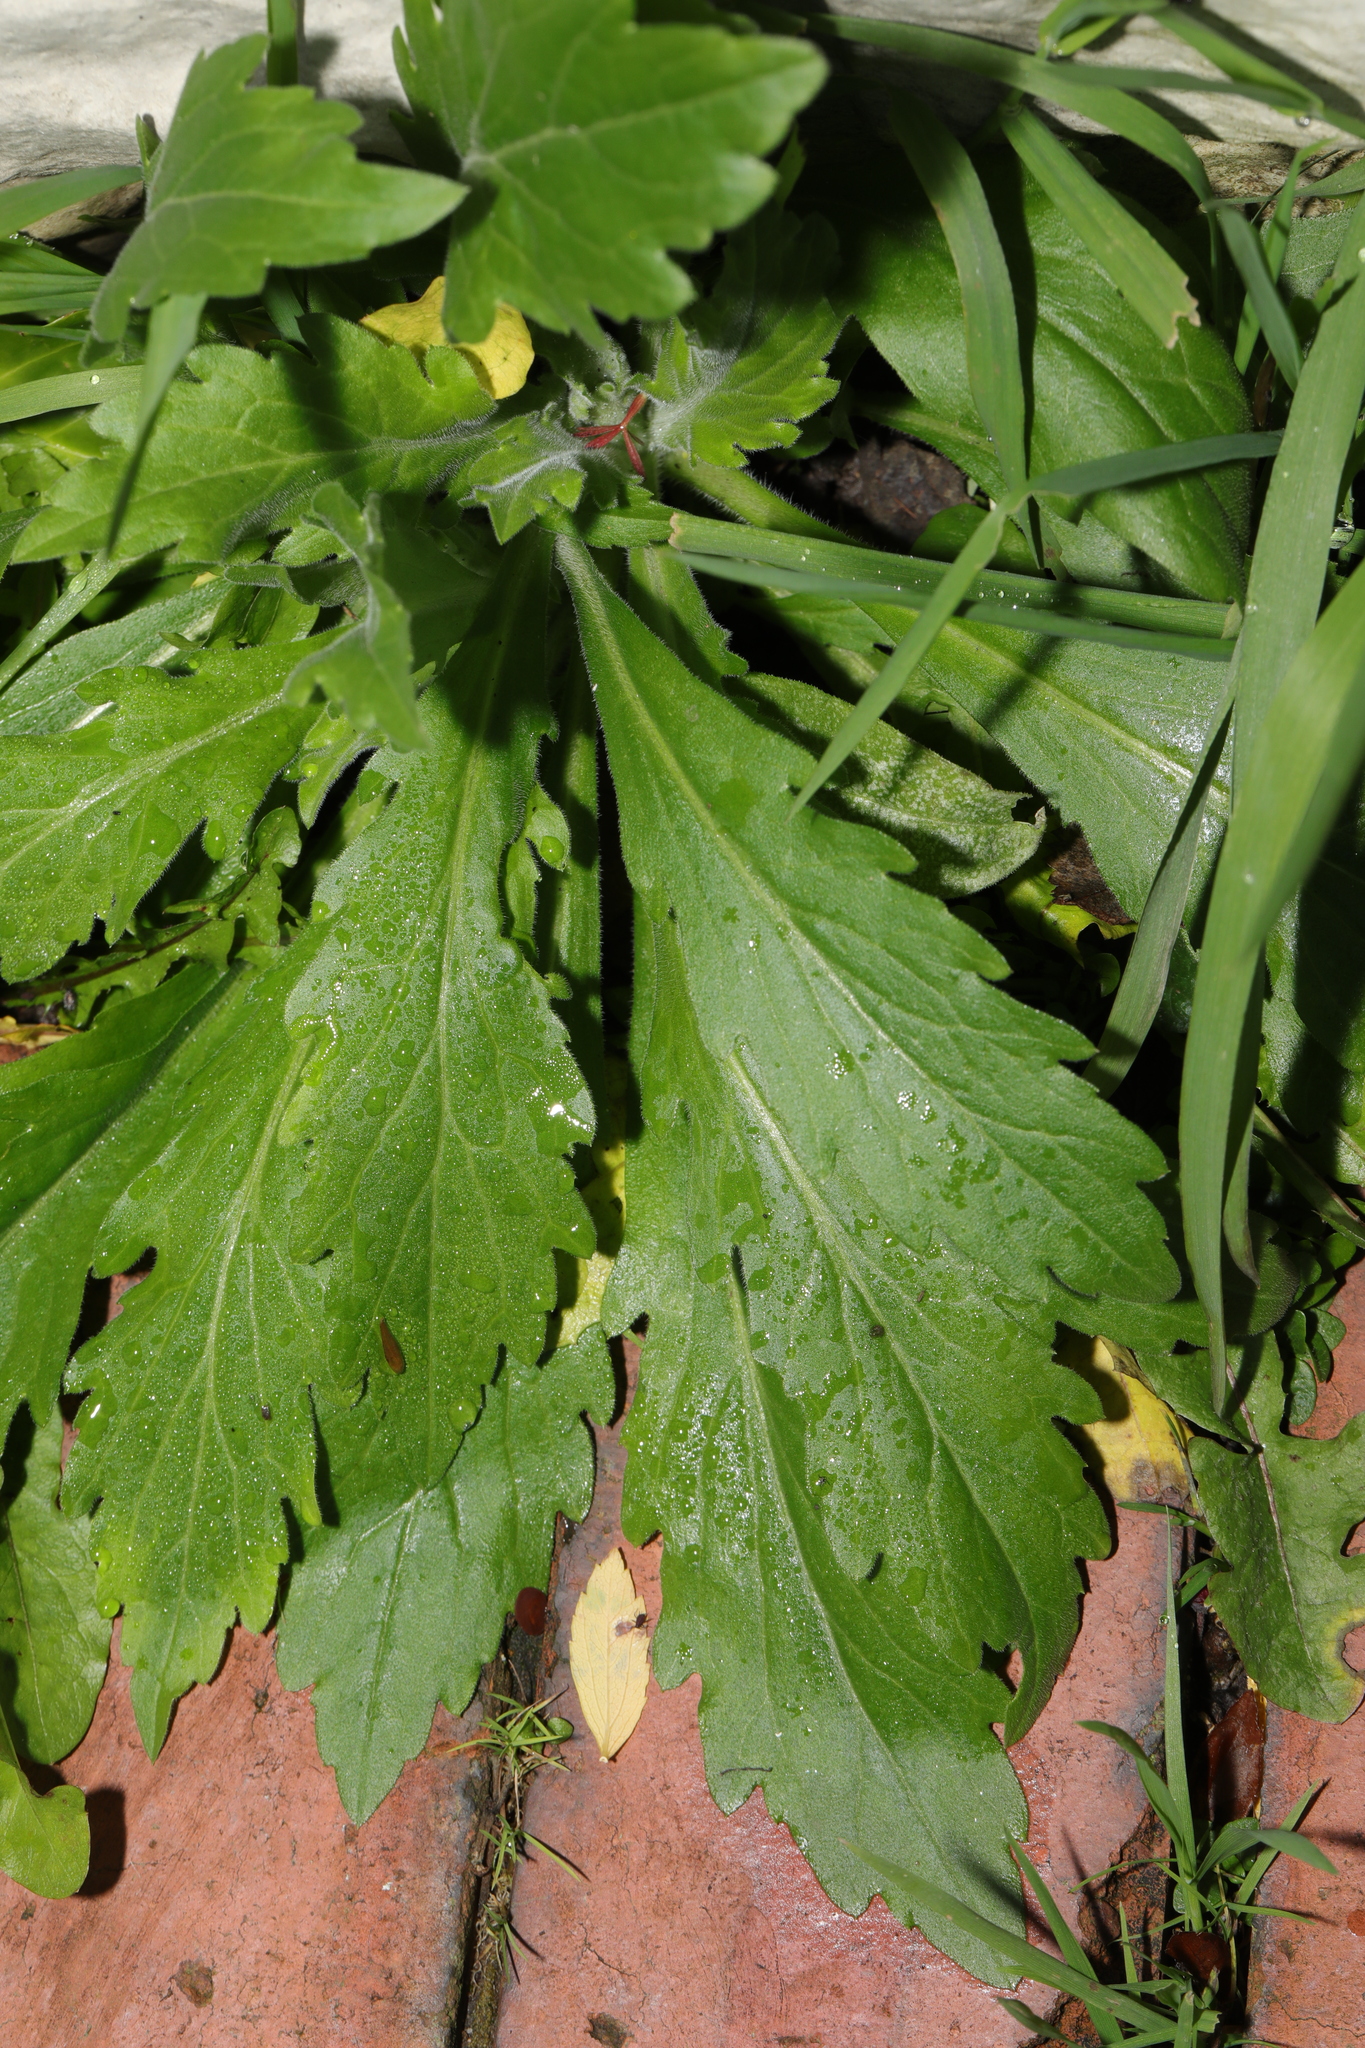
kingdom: Plantae
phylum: Tracheophyta
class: Magnoliopsida
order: Asterales
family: Asteraceae
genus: Erigeron
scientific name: Erigeron sumatrensis
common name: Daisy
